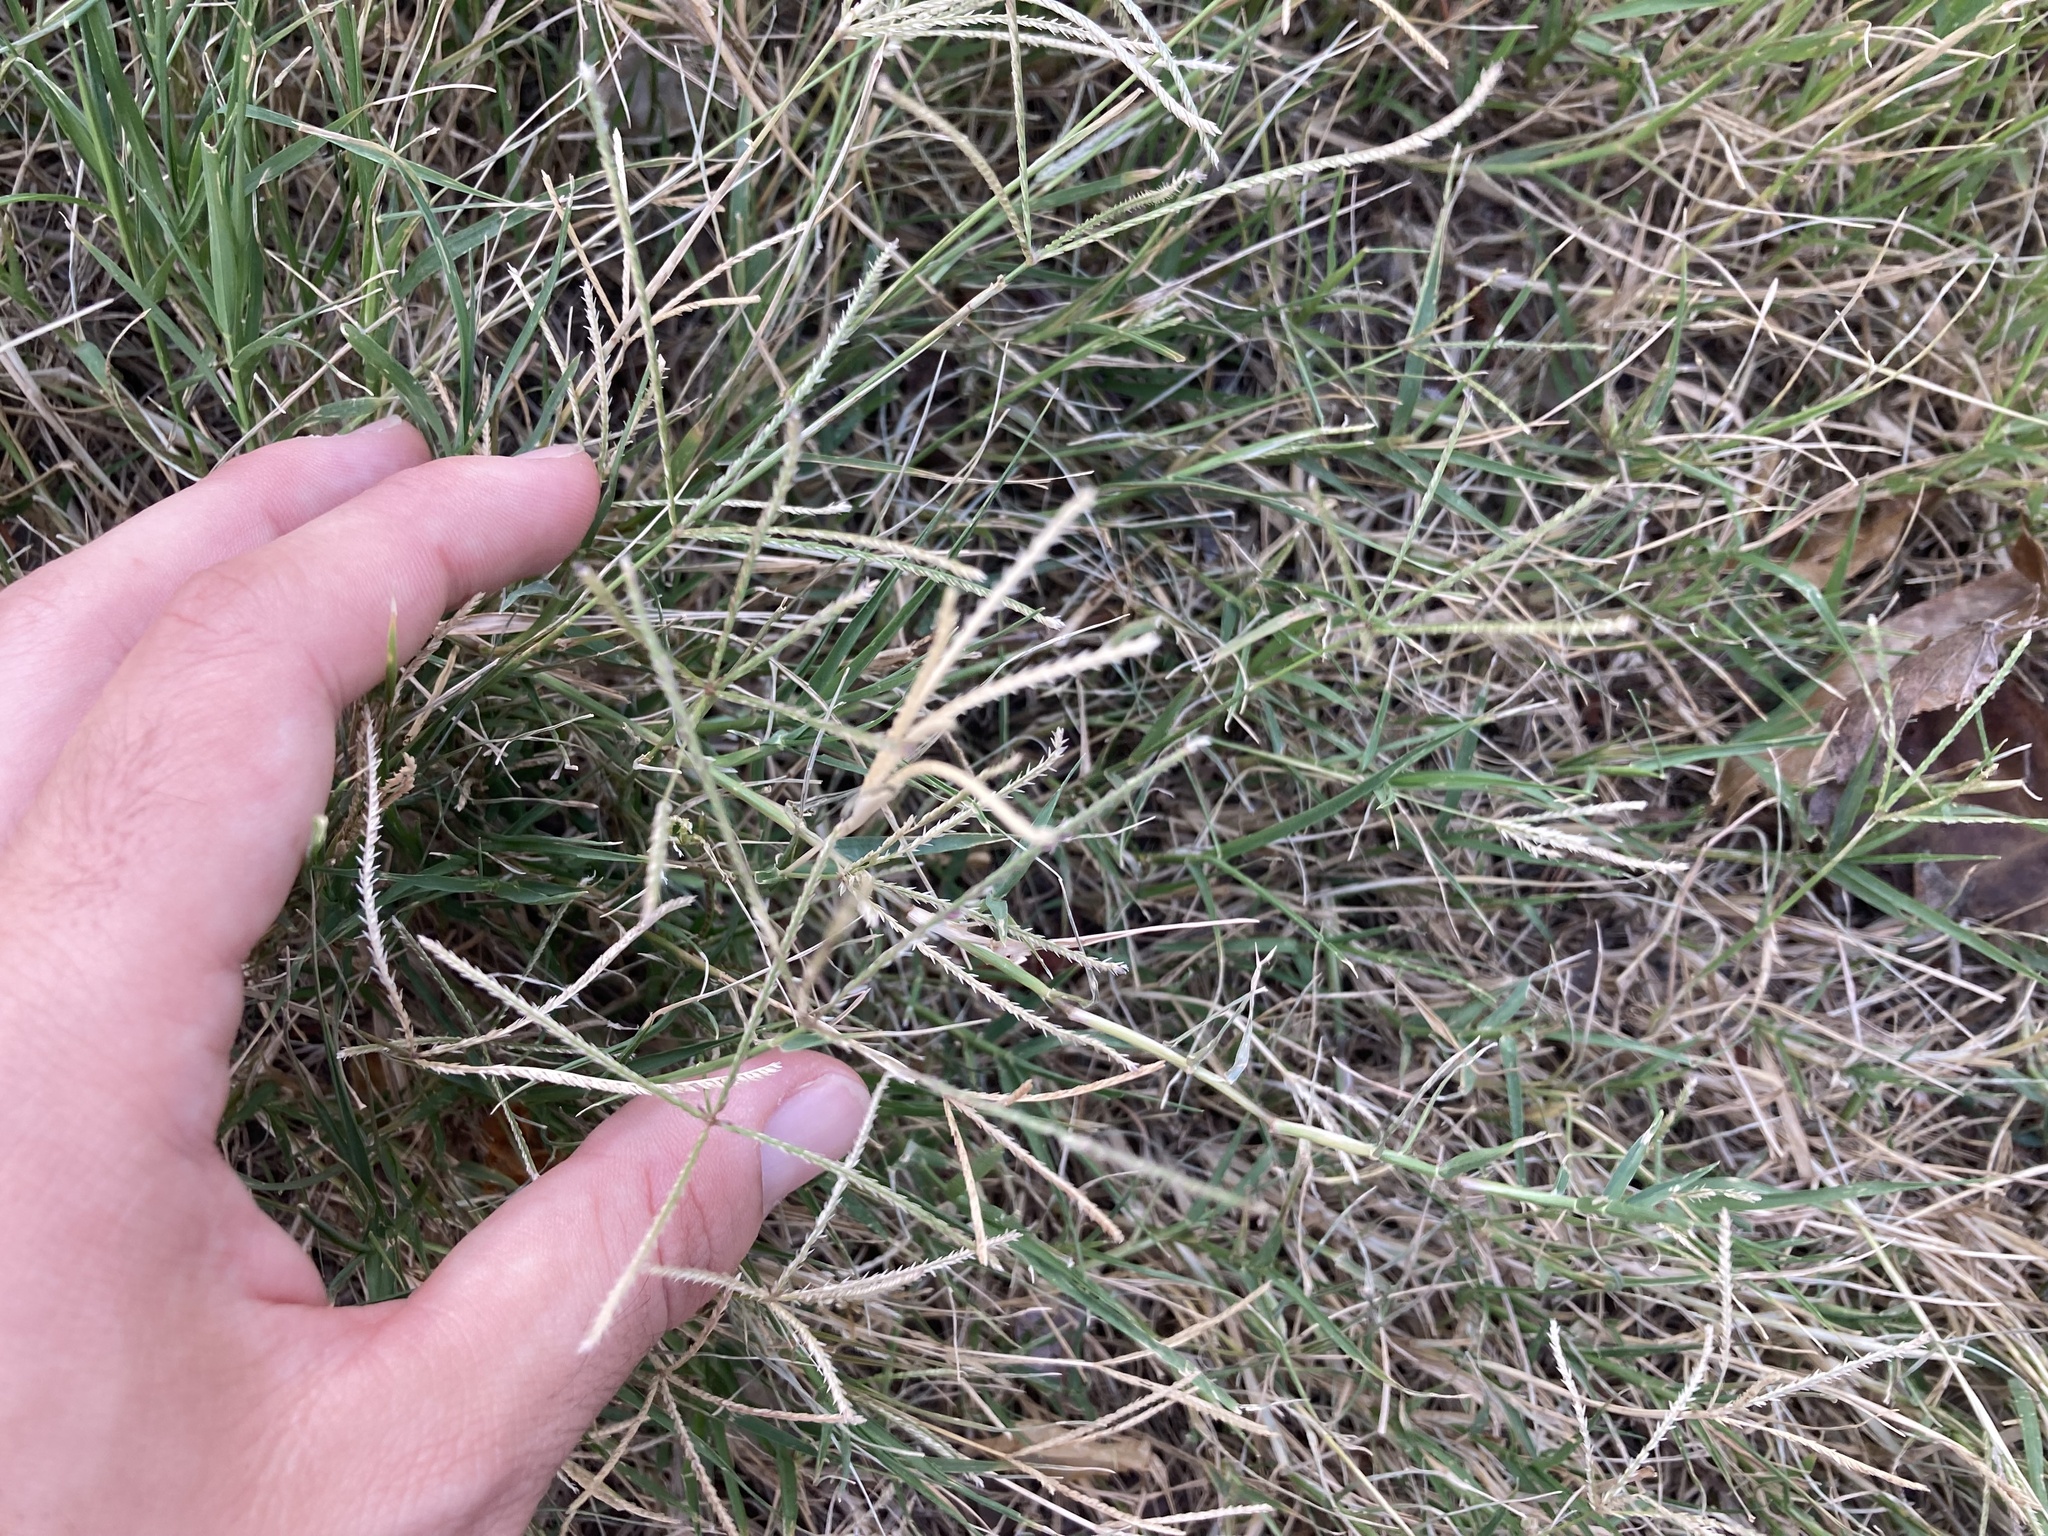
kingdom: Plantae
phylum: Tracheophyta
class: Liliopsida
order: Poales
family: Poaceae
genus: Cynodon
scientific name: Cynodon dactylon
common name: Bermuda grass
